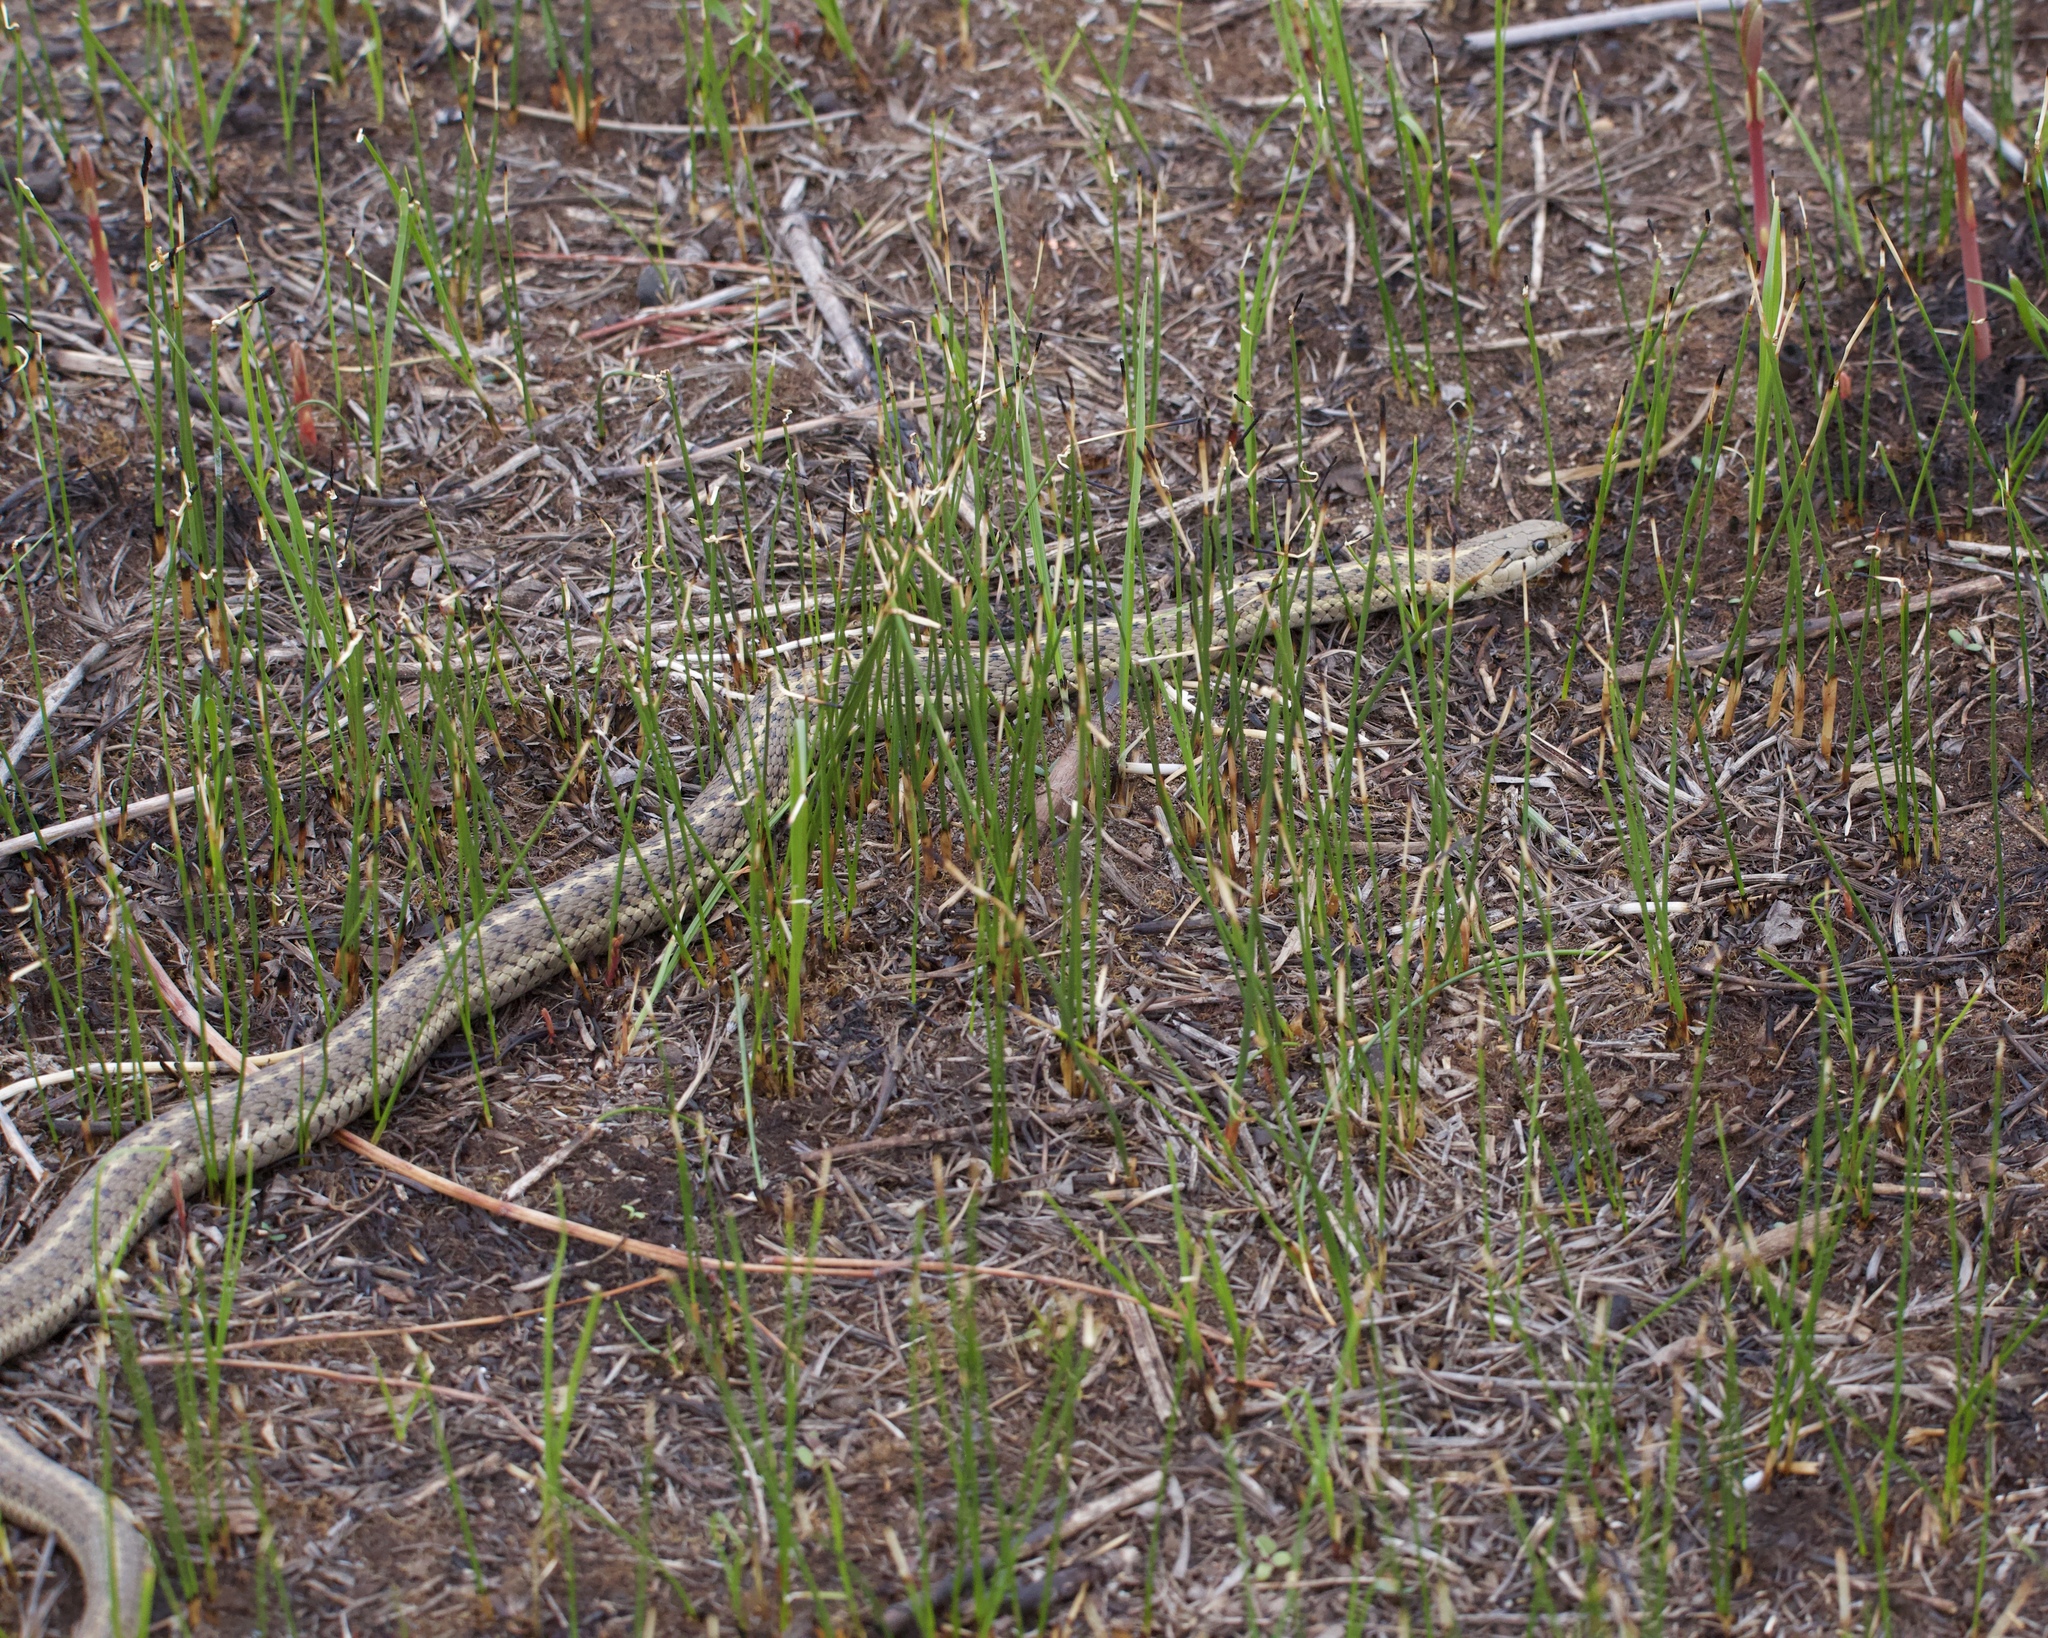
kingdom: Animalia
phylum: Chordata
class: Squamata
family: Colubridae
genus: Thamnophis
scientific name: Thamnophis elegans
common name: Western terrestrial garter snake
